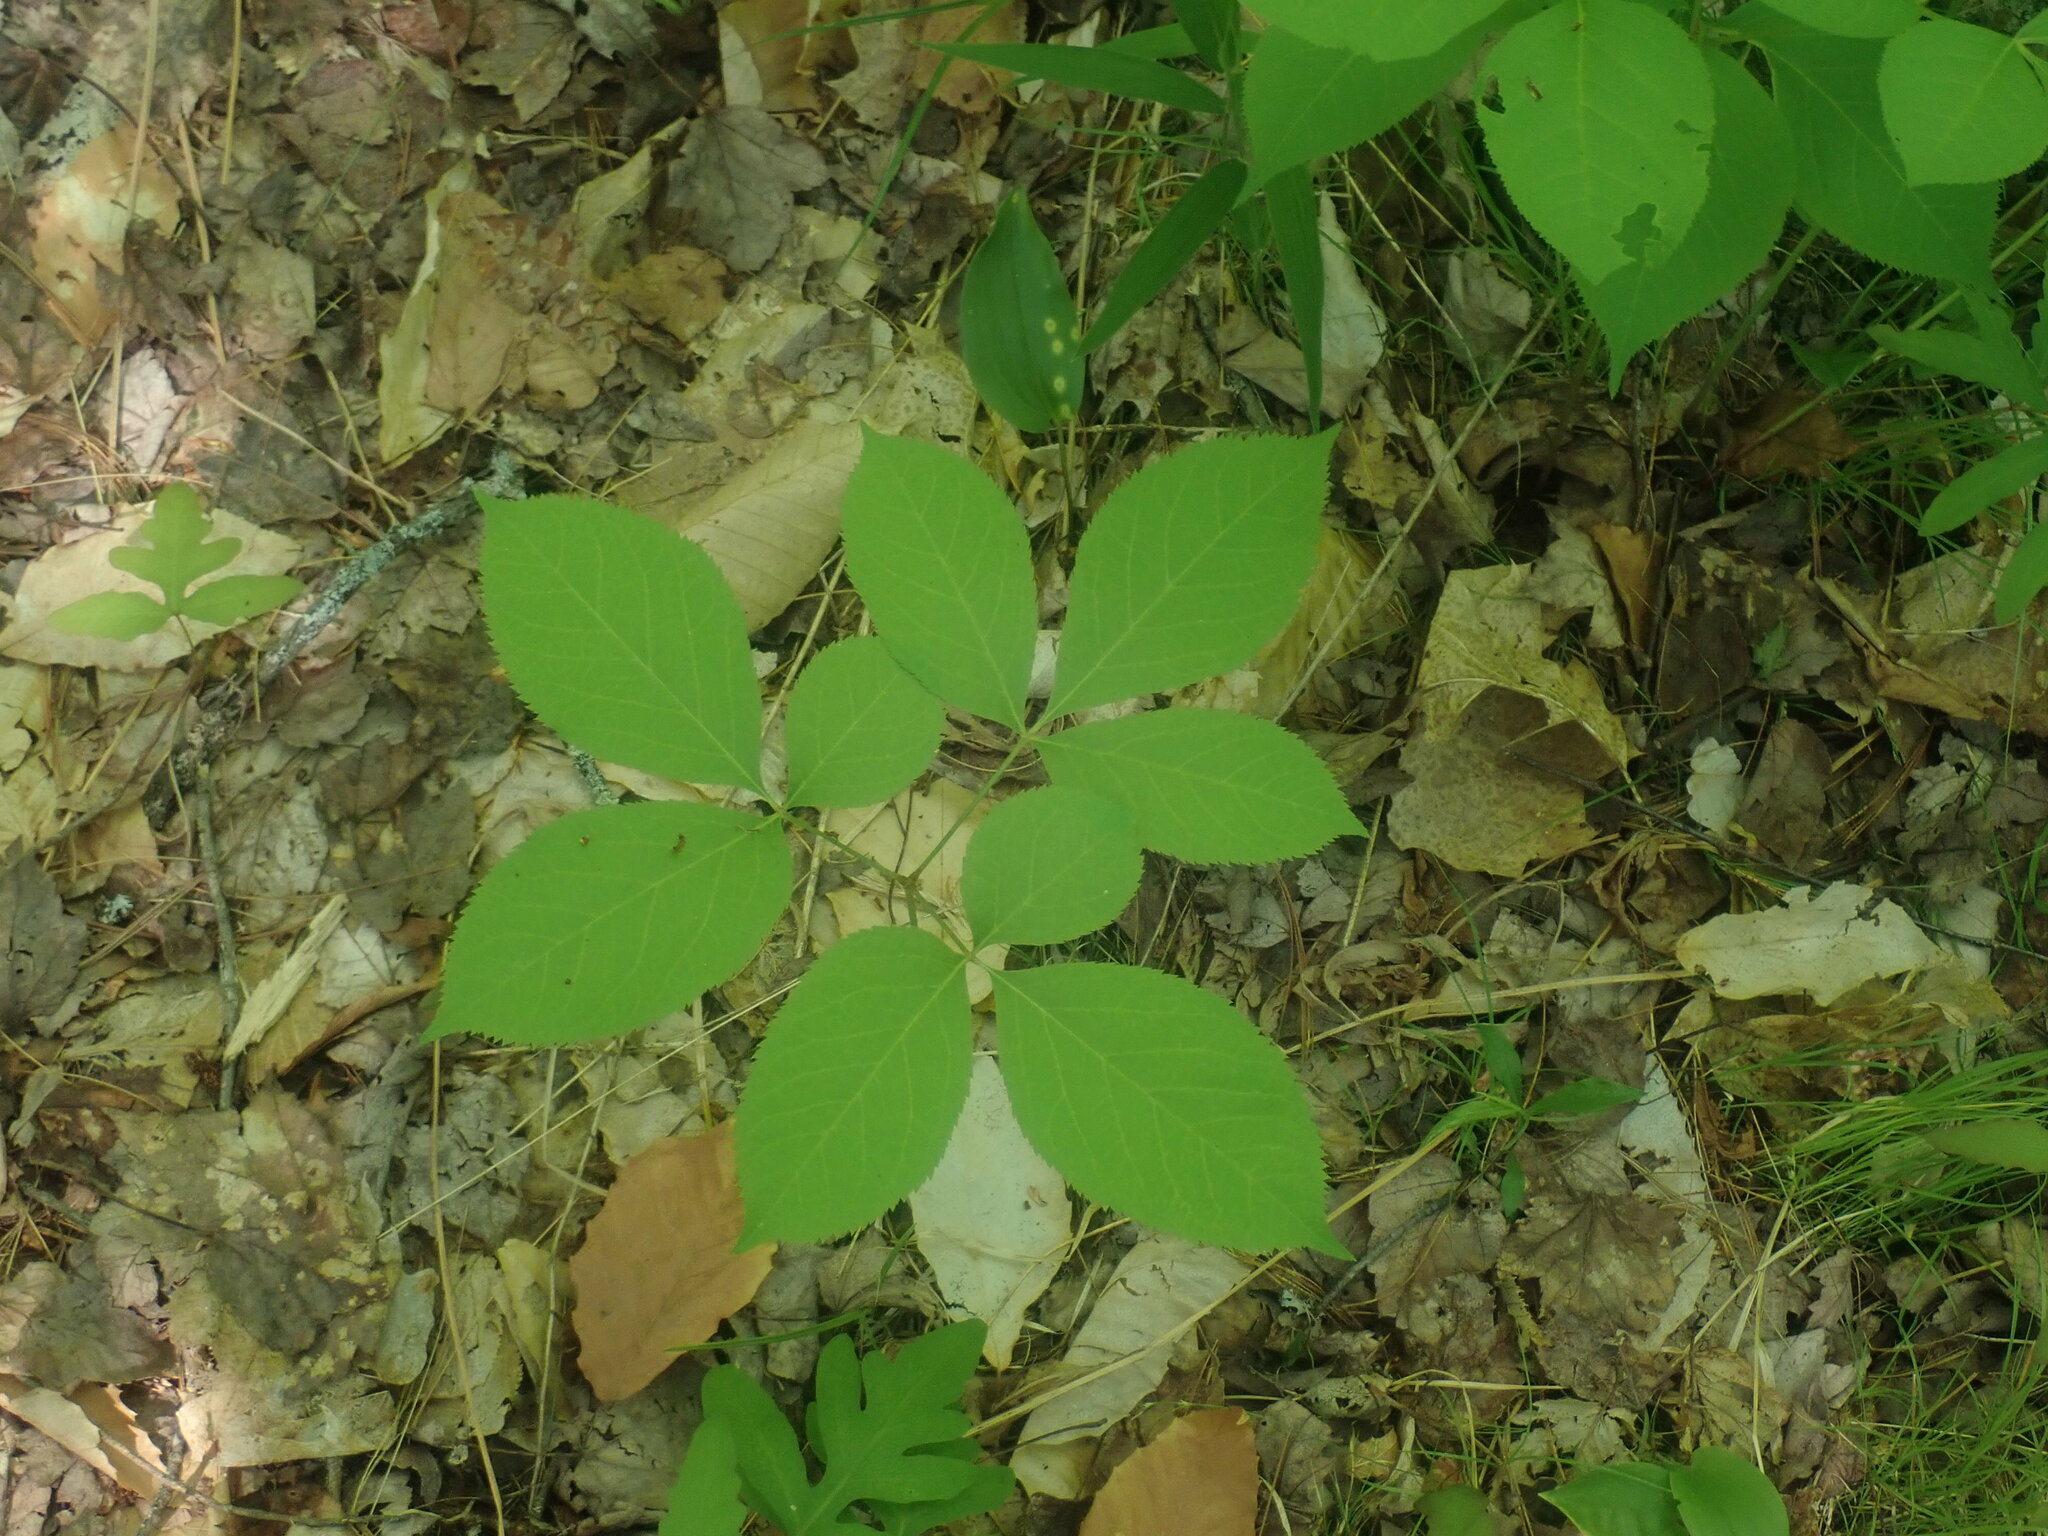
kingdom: Plantae
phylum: Tracheophyta
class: Magnoliopsida
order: Apiales
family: Araliaceae
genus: Aralia
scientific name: Aralia nudicaulis
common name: Wild sarsaparilla
